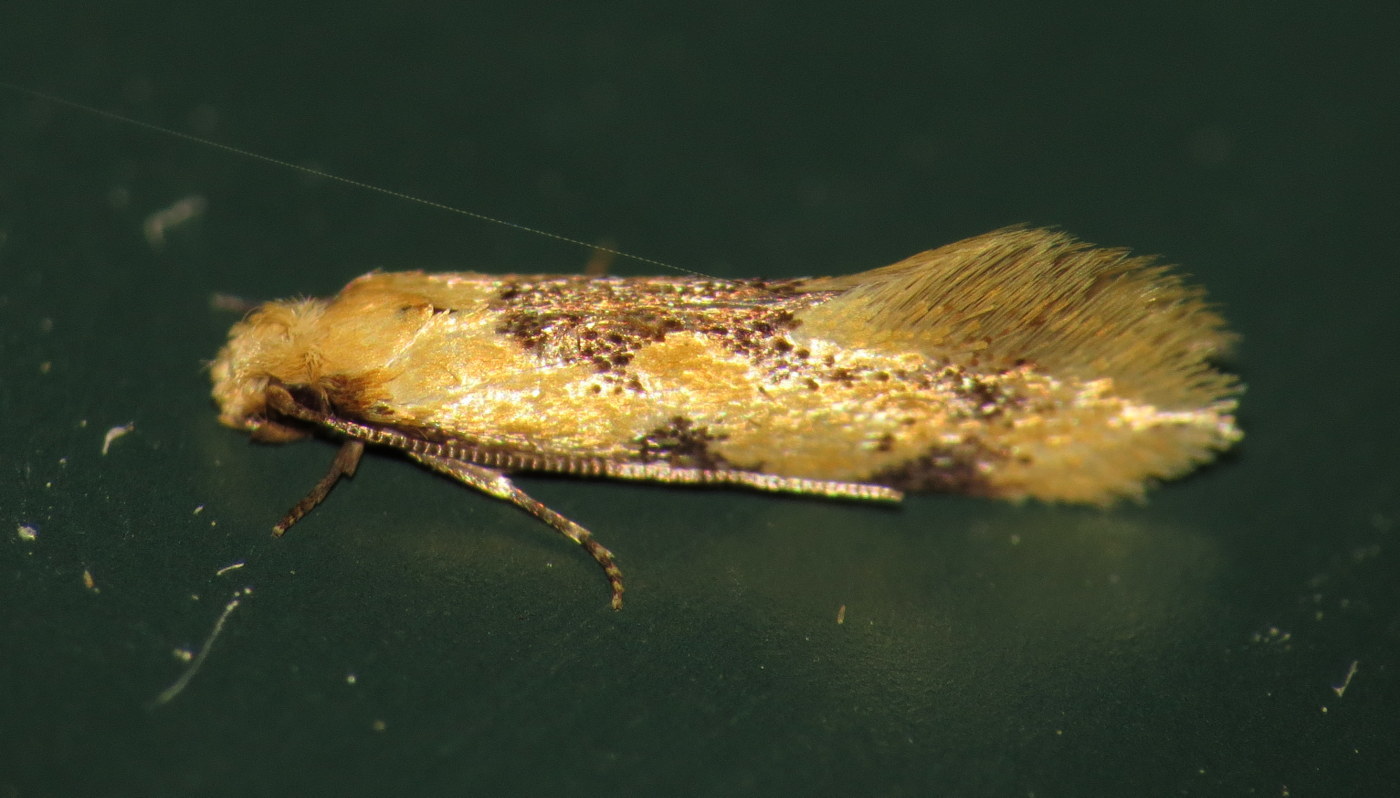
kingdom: Animalia
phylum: Arthropoda
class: Insecta
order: Lepidoptera
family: Meessiidae
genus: Hybroma
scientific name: Hybroma servulella
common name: Yellow wave moth
